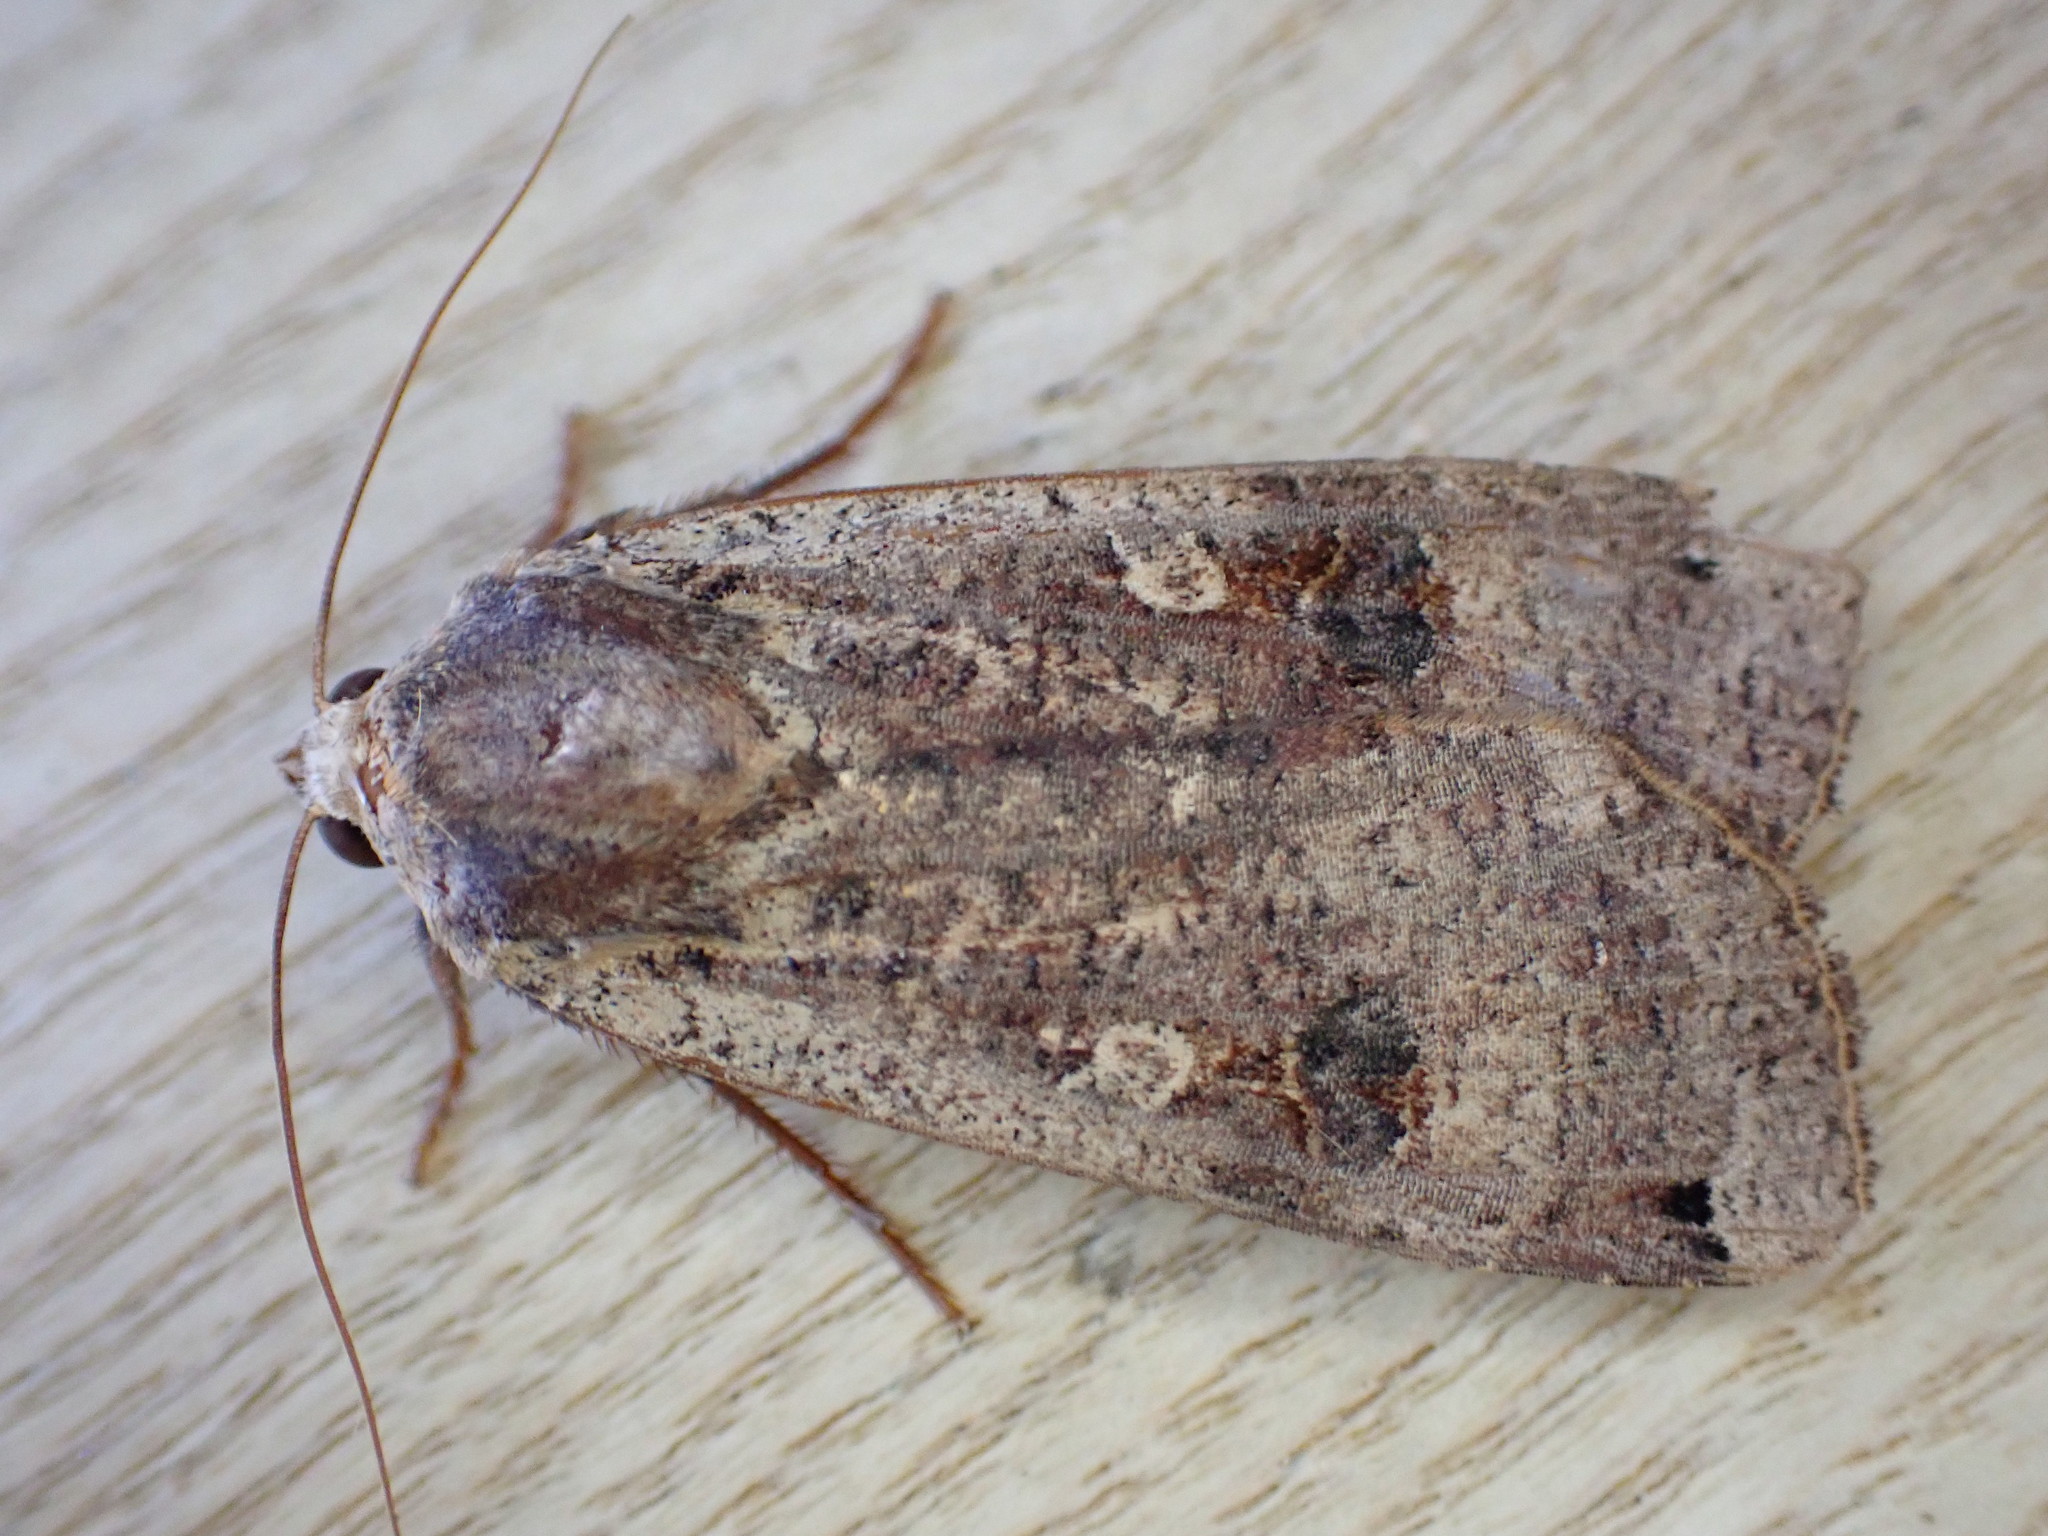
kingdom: Animalia
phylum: Arthropoda
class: Insecta
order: Lepidoptera
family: Noctuidae
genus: Noctua
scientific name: Noctua pronuba
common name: Large yellow underwing
